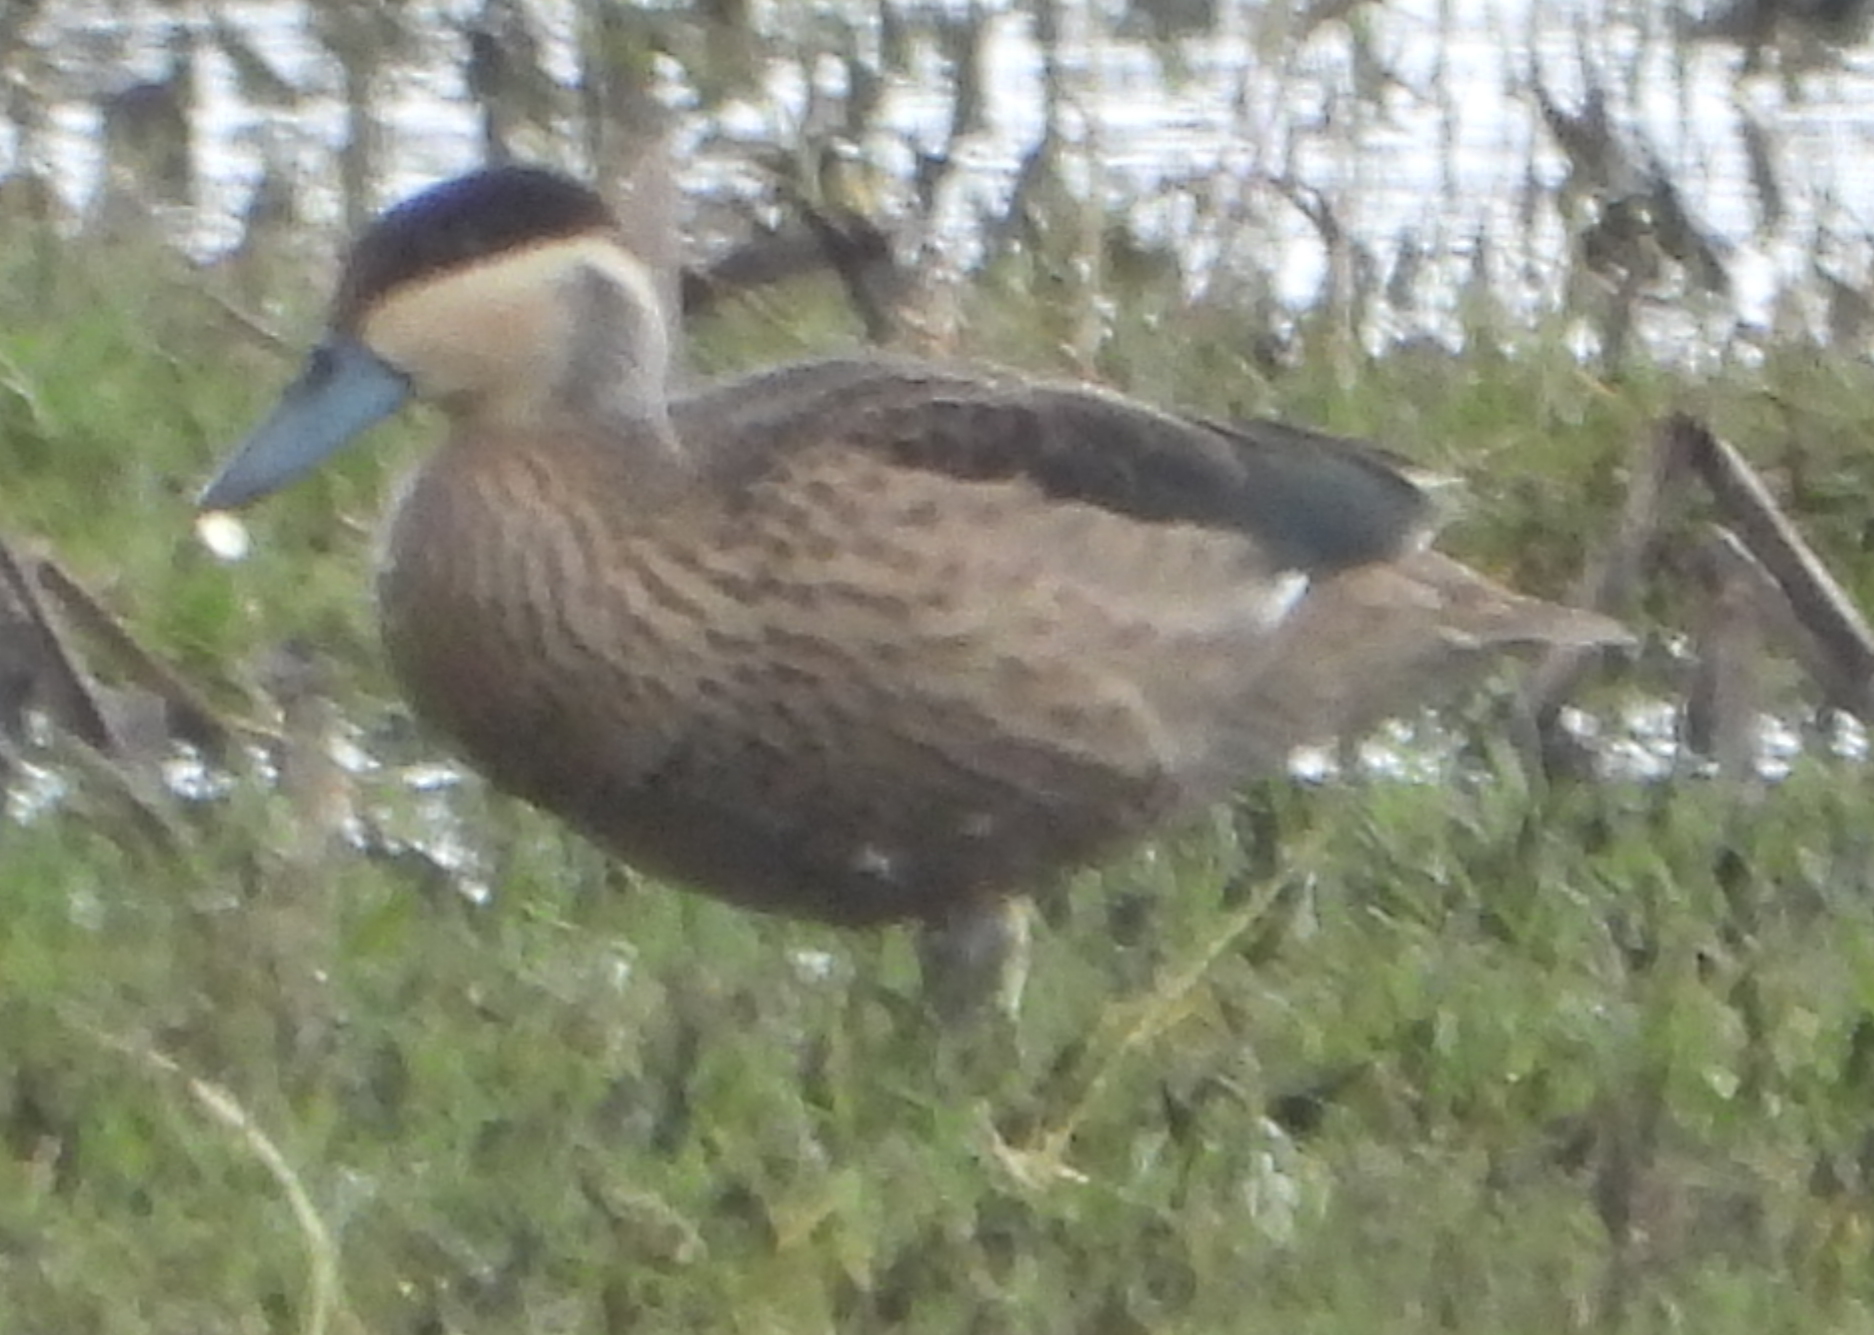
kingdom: Animalia
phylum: Chordata
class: Aves
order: Anseriformes
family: Anatidae
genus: Spatula
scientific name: Spatula hottentota
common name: Blue-billed teal
